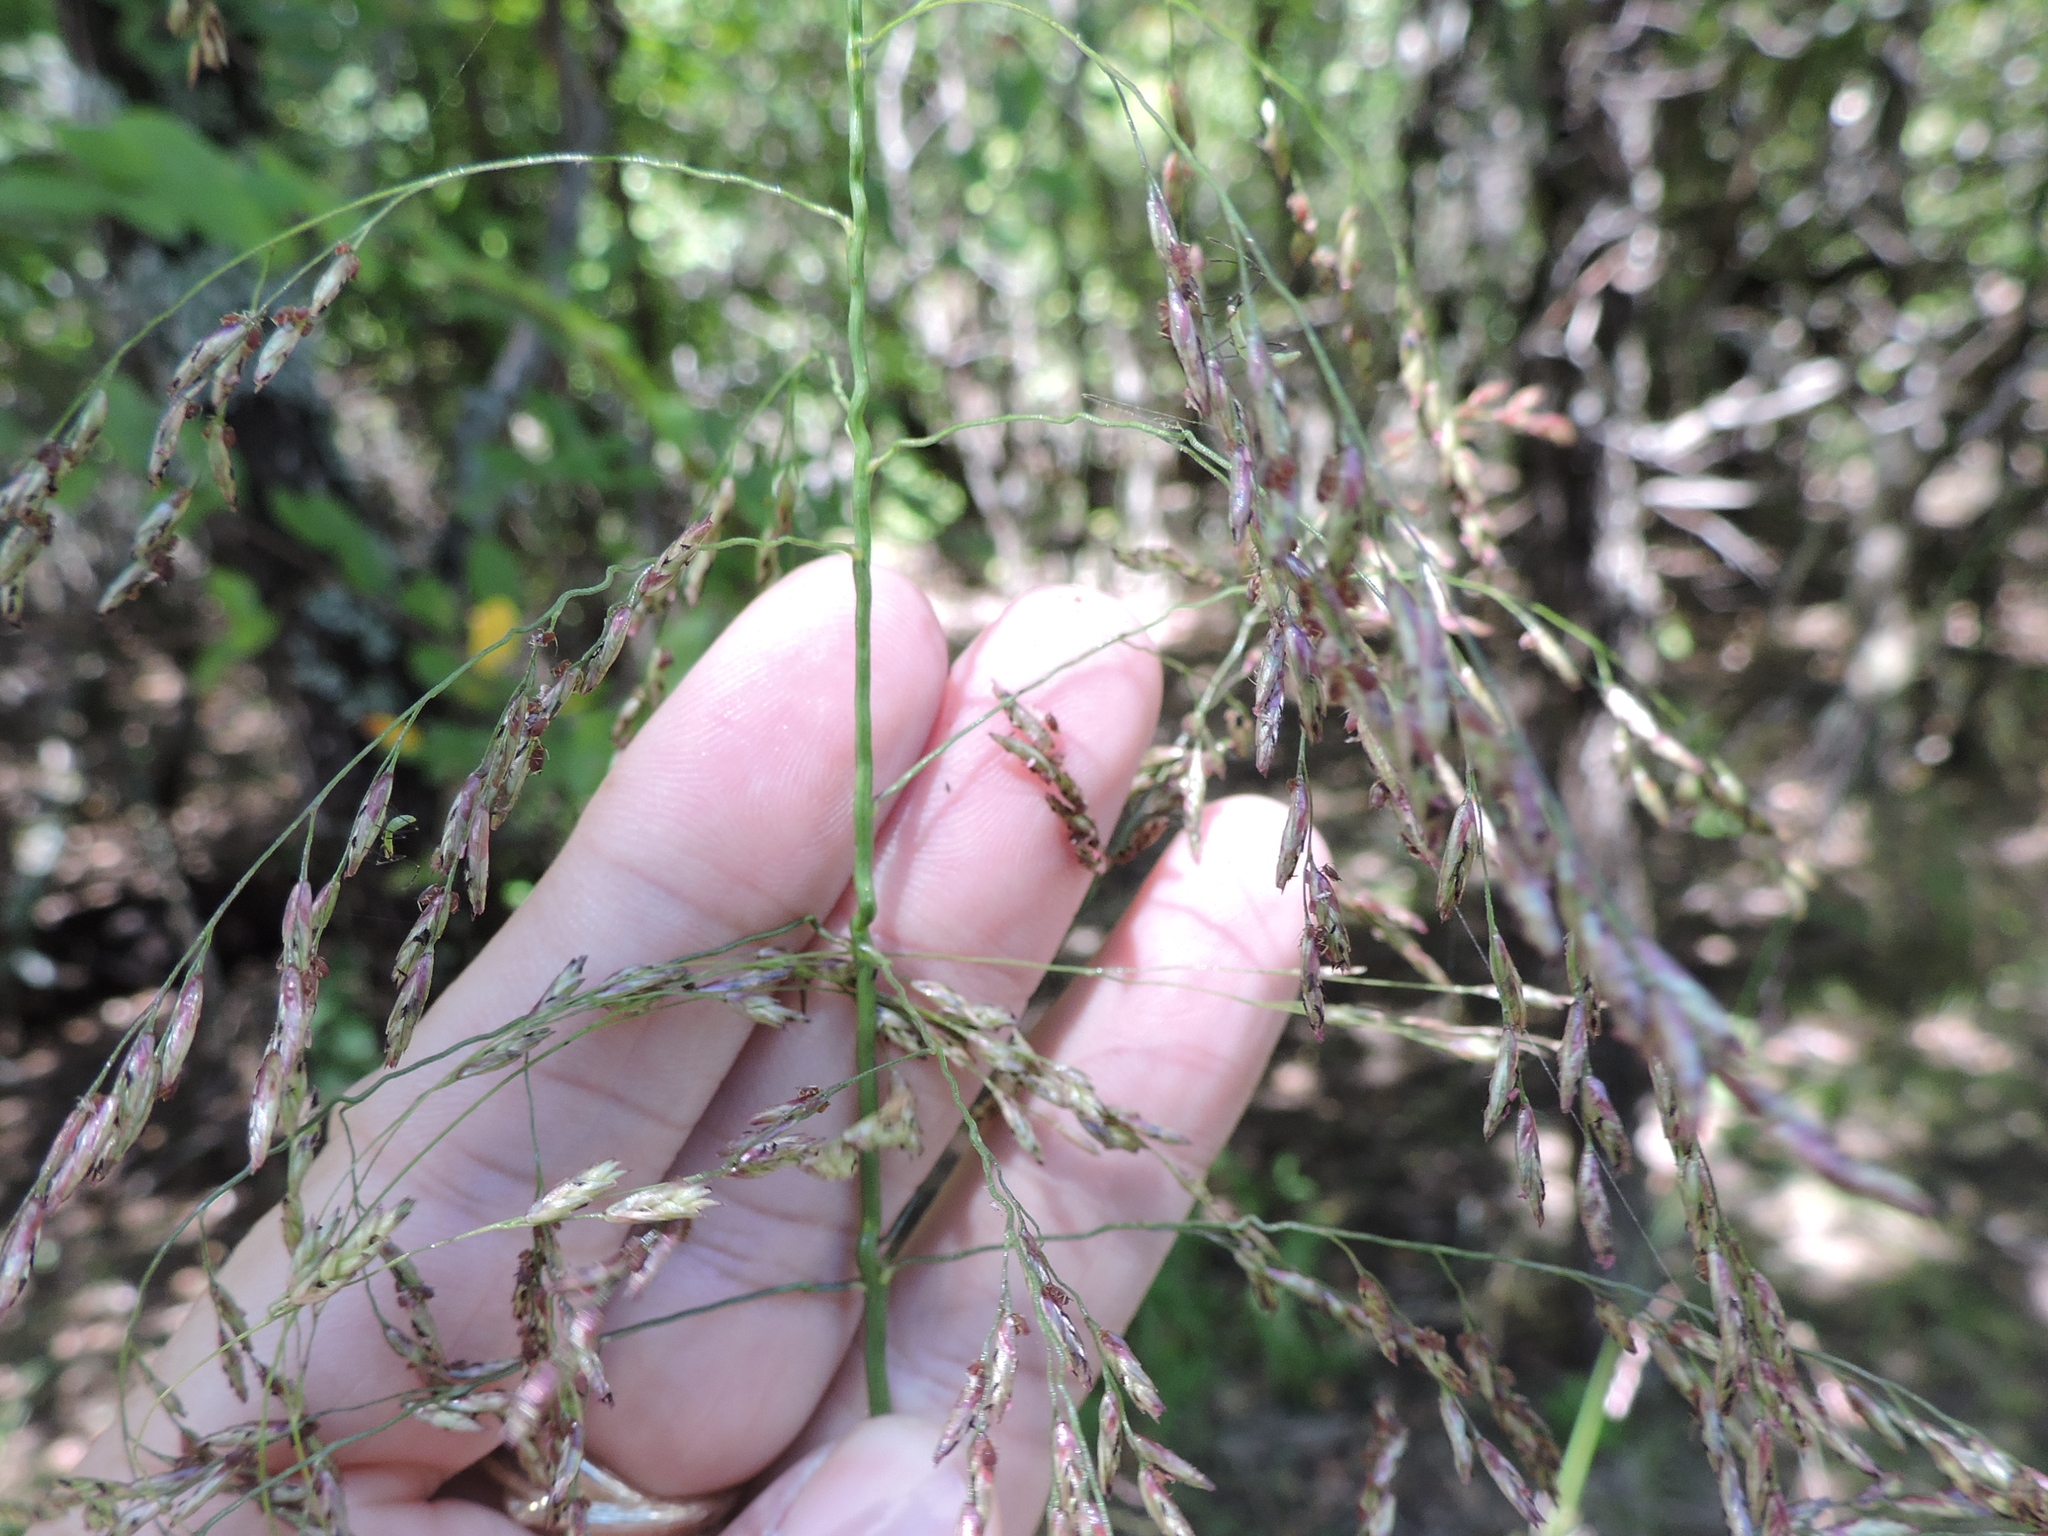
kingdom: Plantae
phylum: Tracheophyta
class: Liliopsida
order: Poales
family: Poaceae
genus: Tridens
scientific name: Tridens flavus
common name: Purpletop
